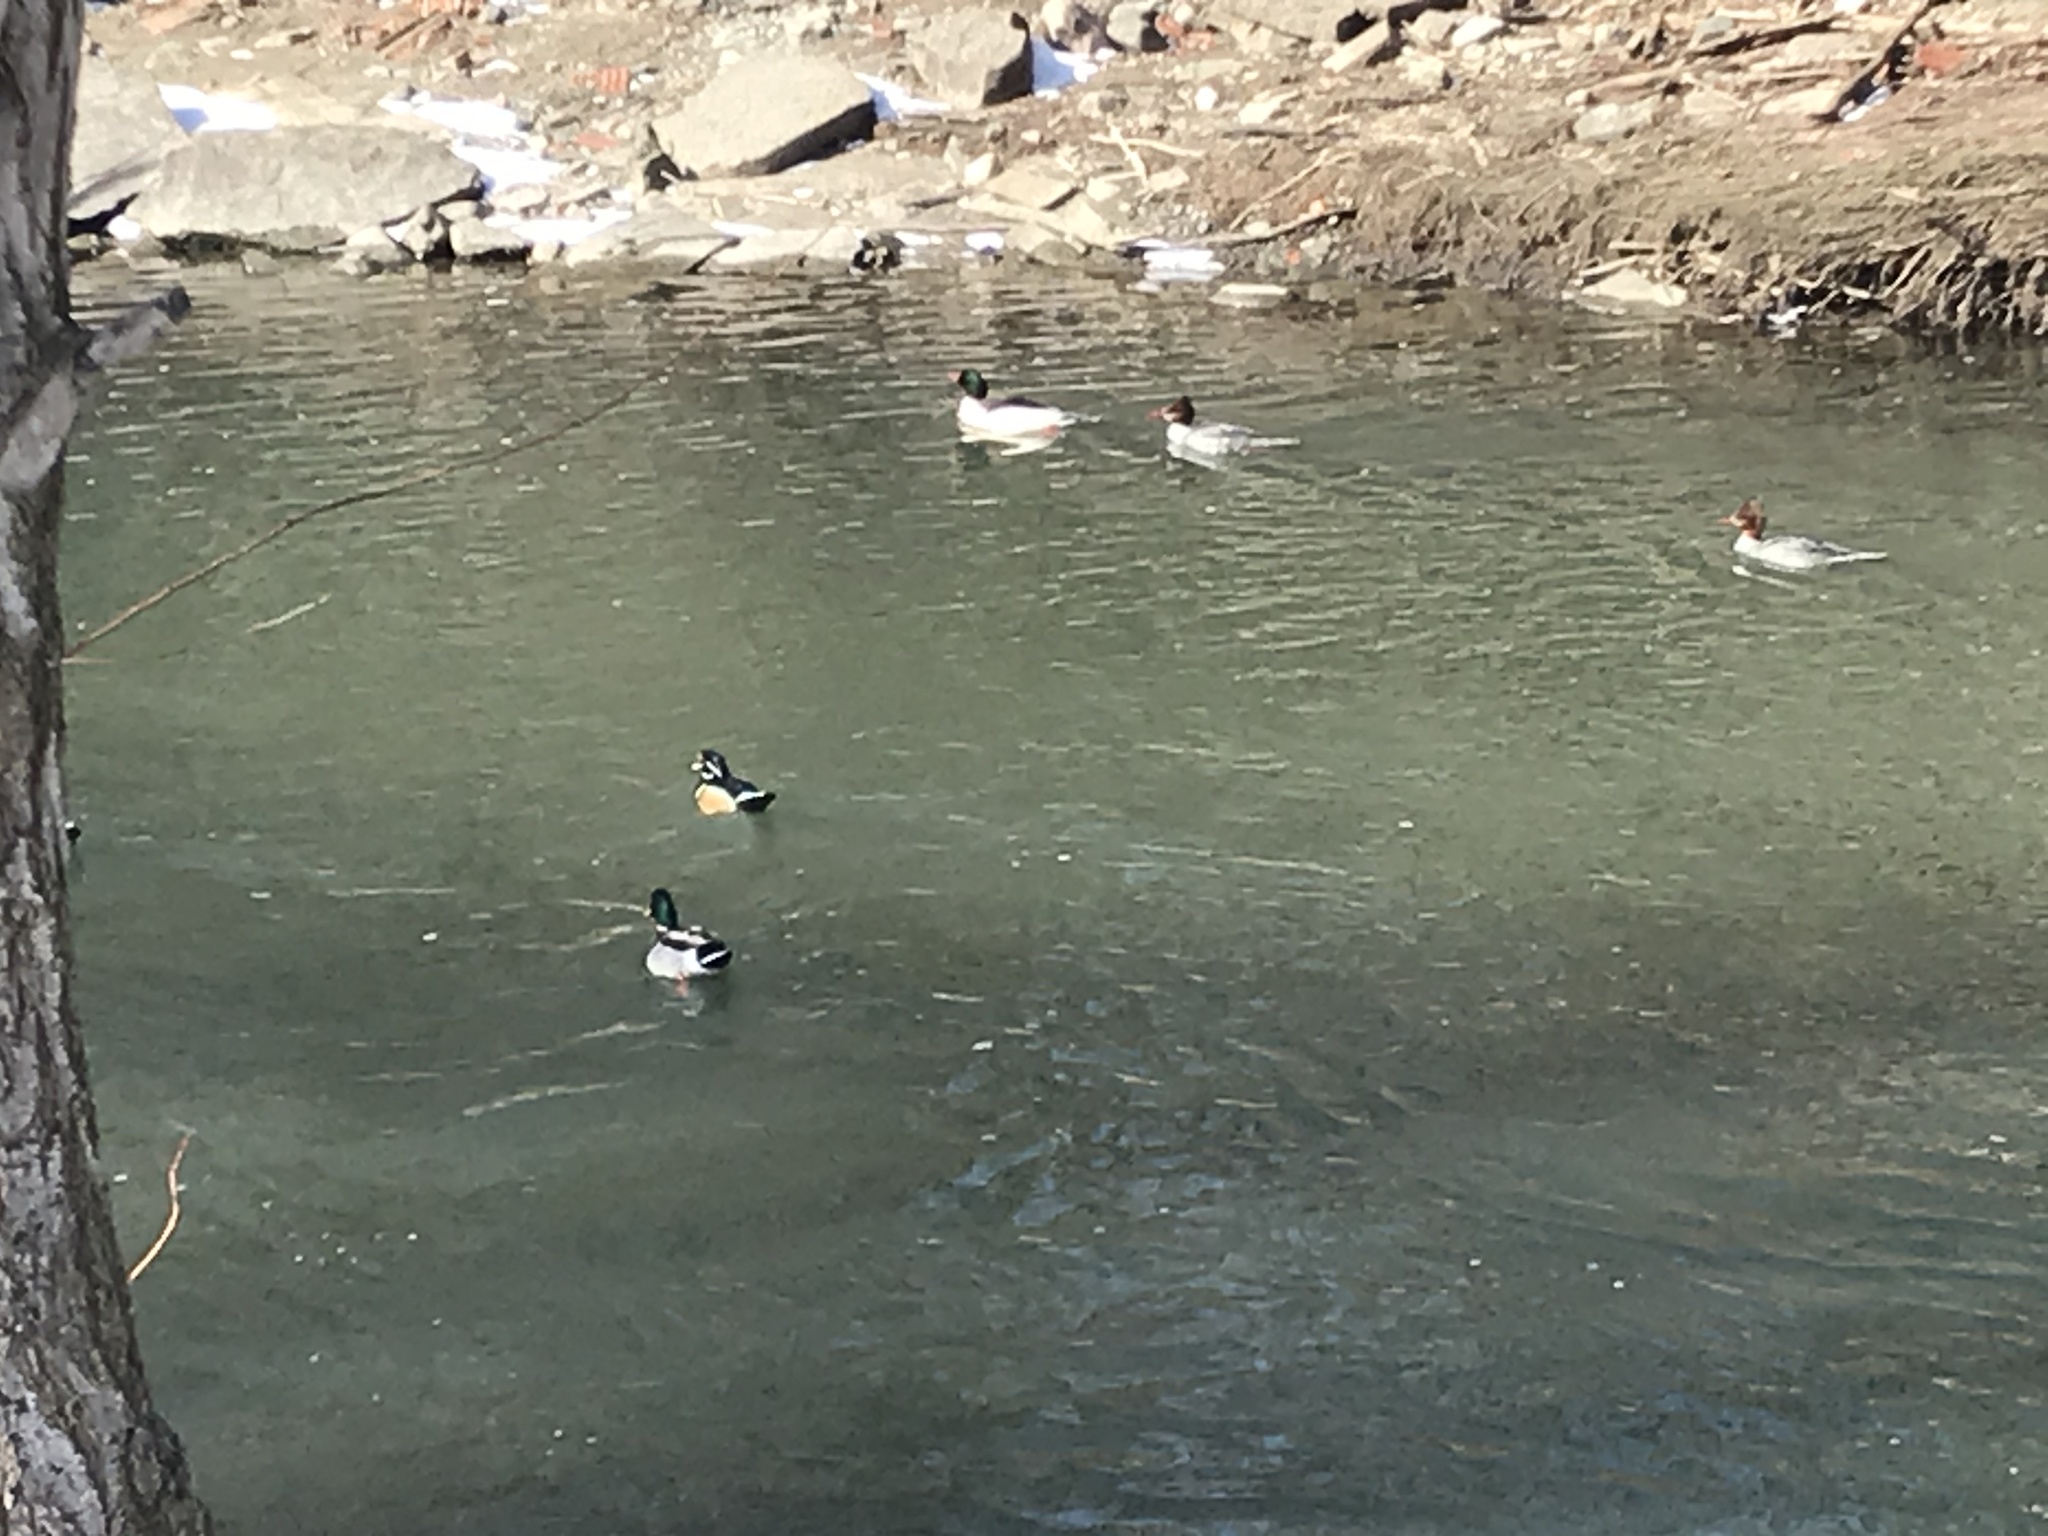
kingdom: Animalia
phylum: Chordata
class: Aves
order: Anseriformes
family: Anatidae
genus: Anas
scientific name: Anas platyrhynchos
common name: Mallard
